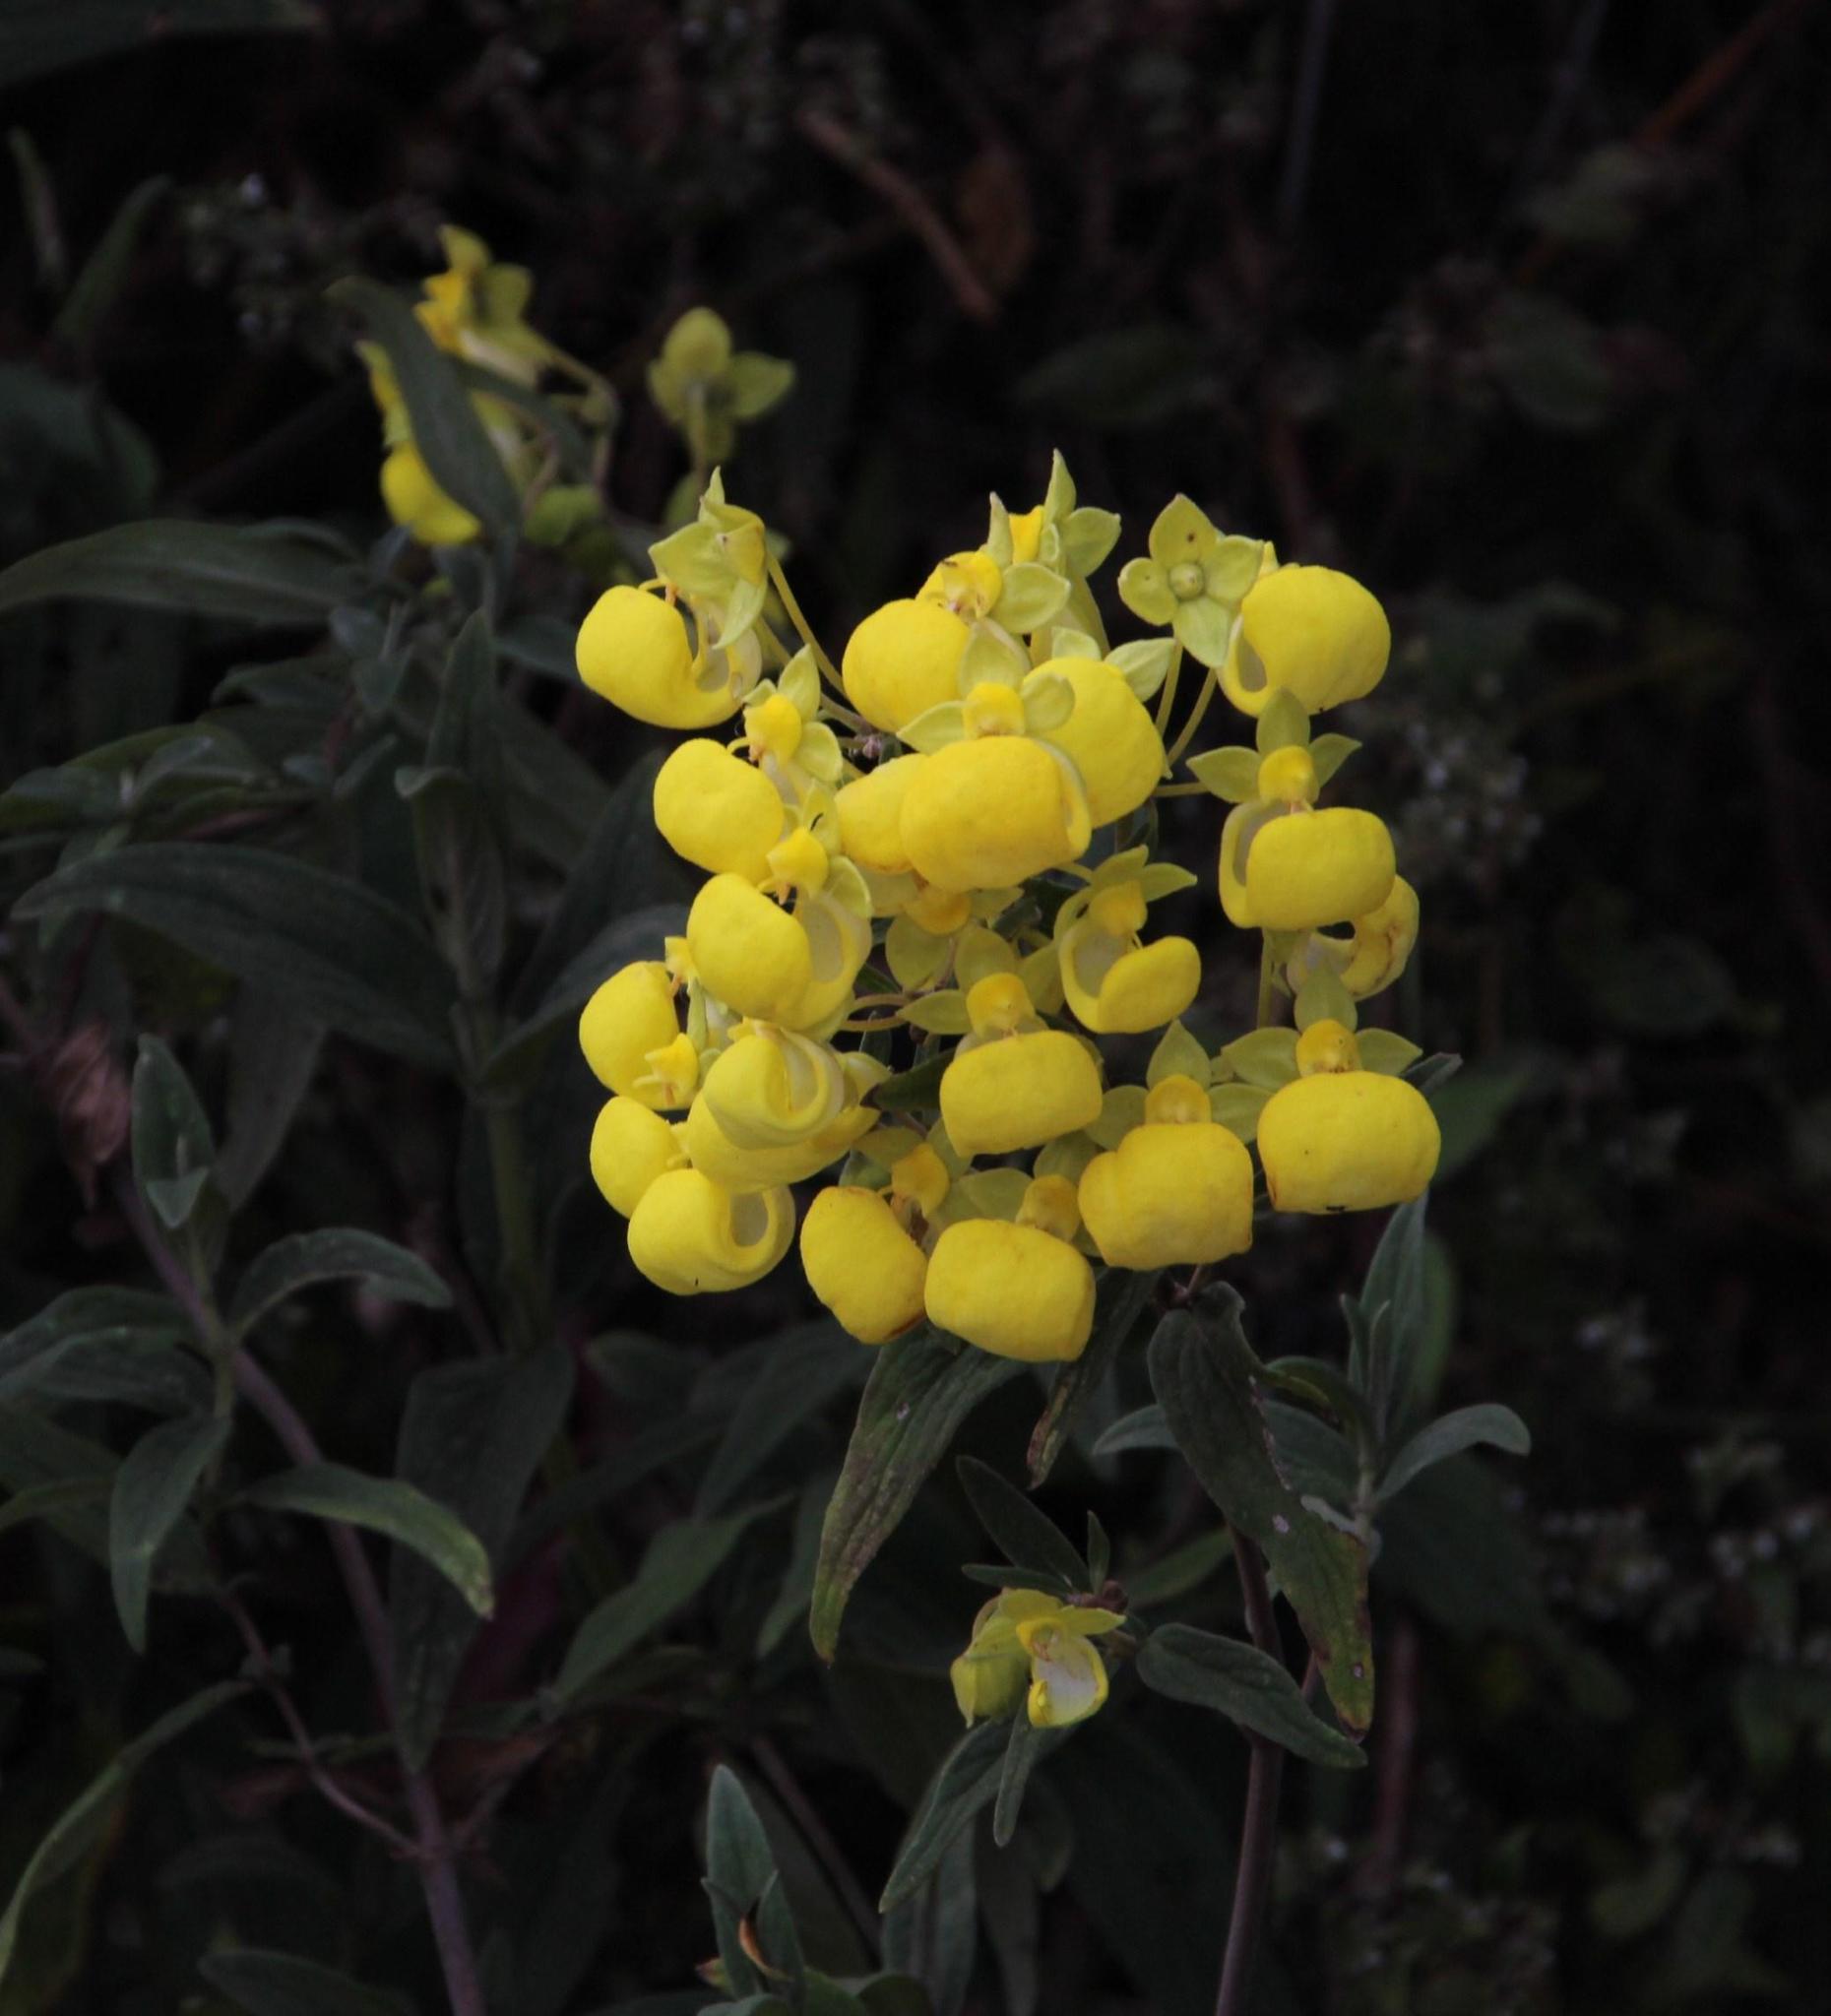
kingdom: Plantae
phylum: Tracheophyta
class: Magnoliopsida
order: Lamiales
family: Calceolariaceae
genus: Calceolaria
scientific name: Calceolaria engleriana
